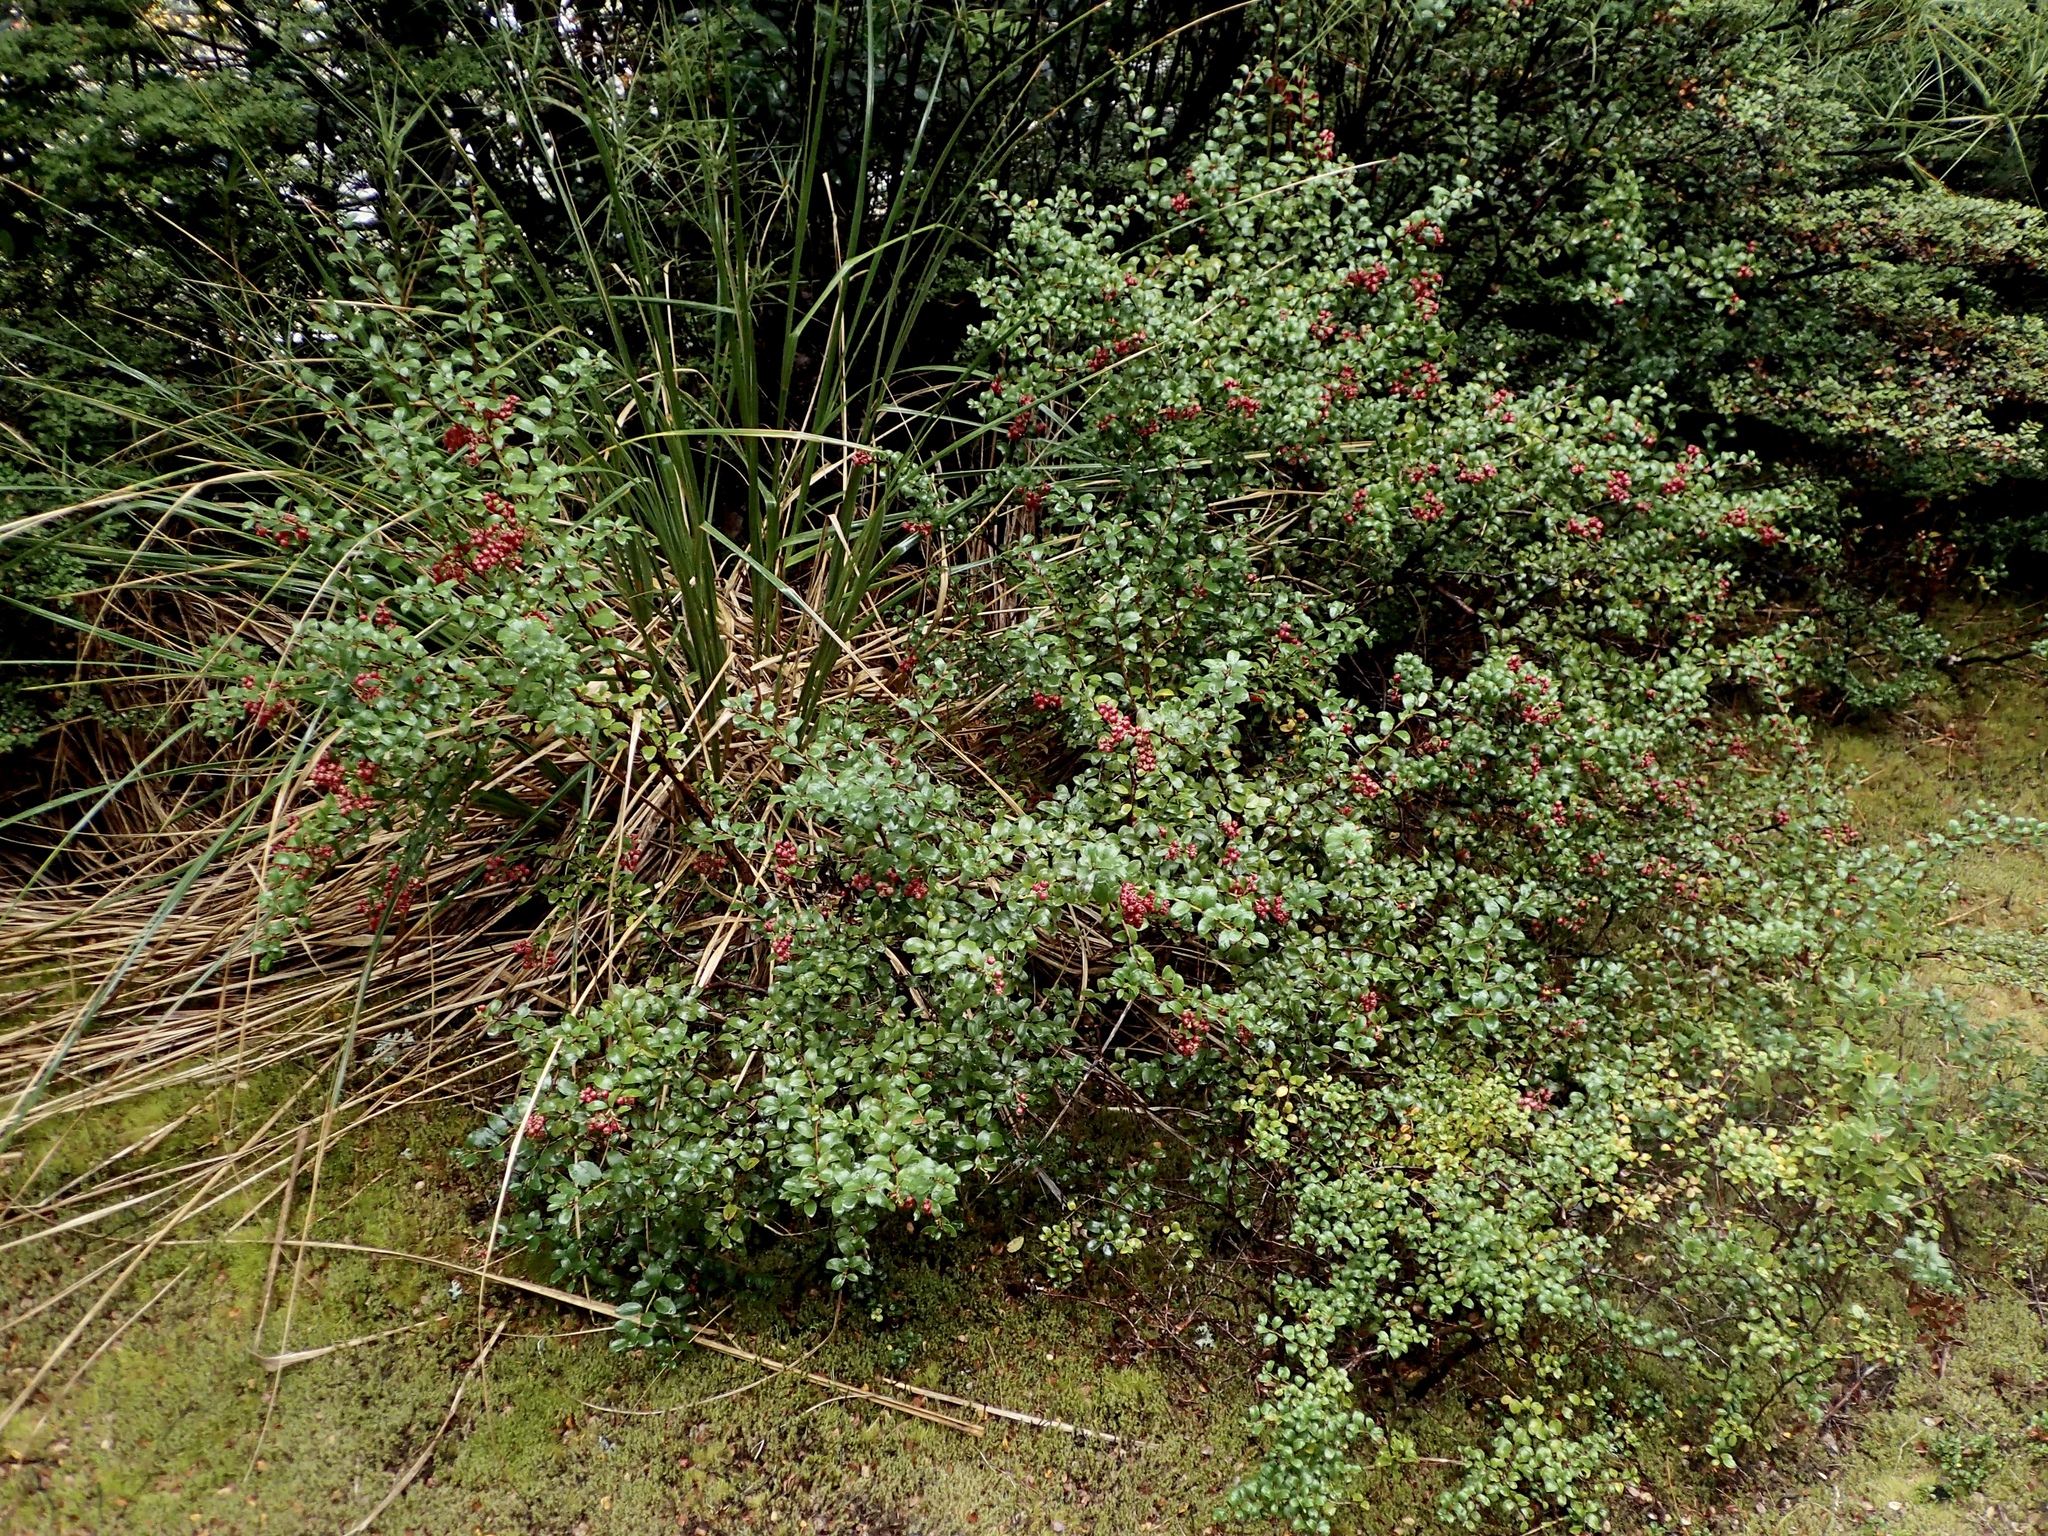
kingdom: Plantae
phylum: Tracheophyta
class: Magnoliopsida
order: Ericales
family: Ericaceae
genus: Gaultheria
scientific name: Gaultheria antipoda
